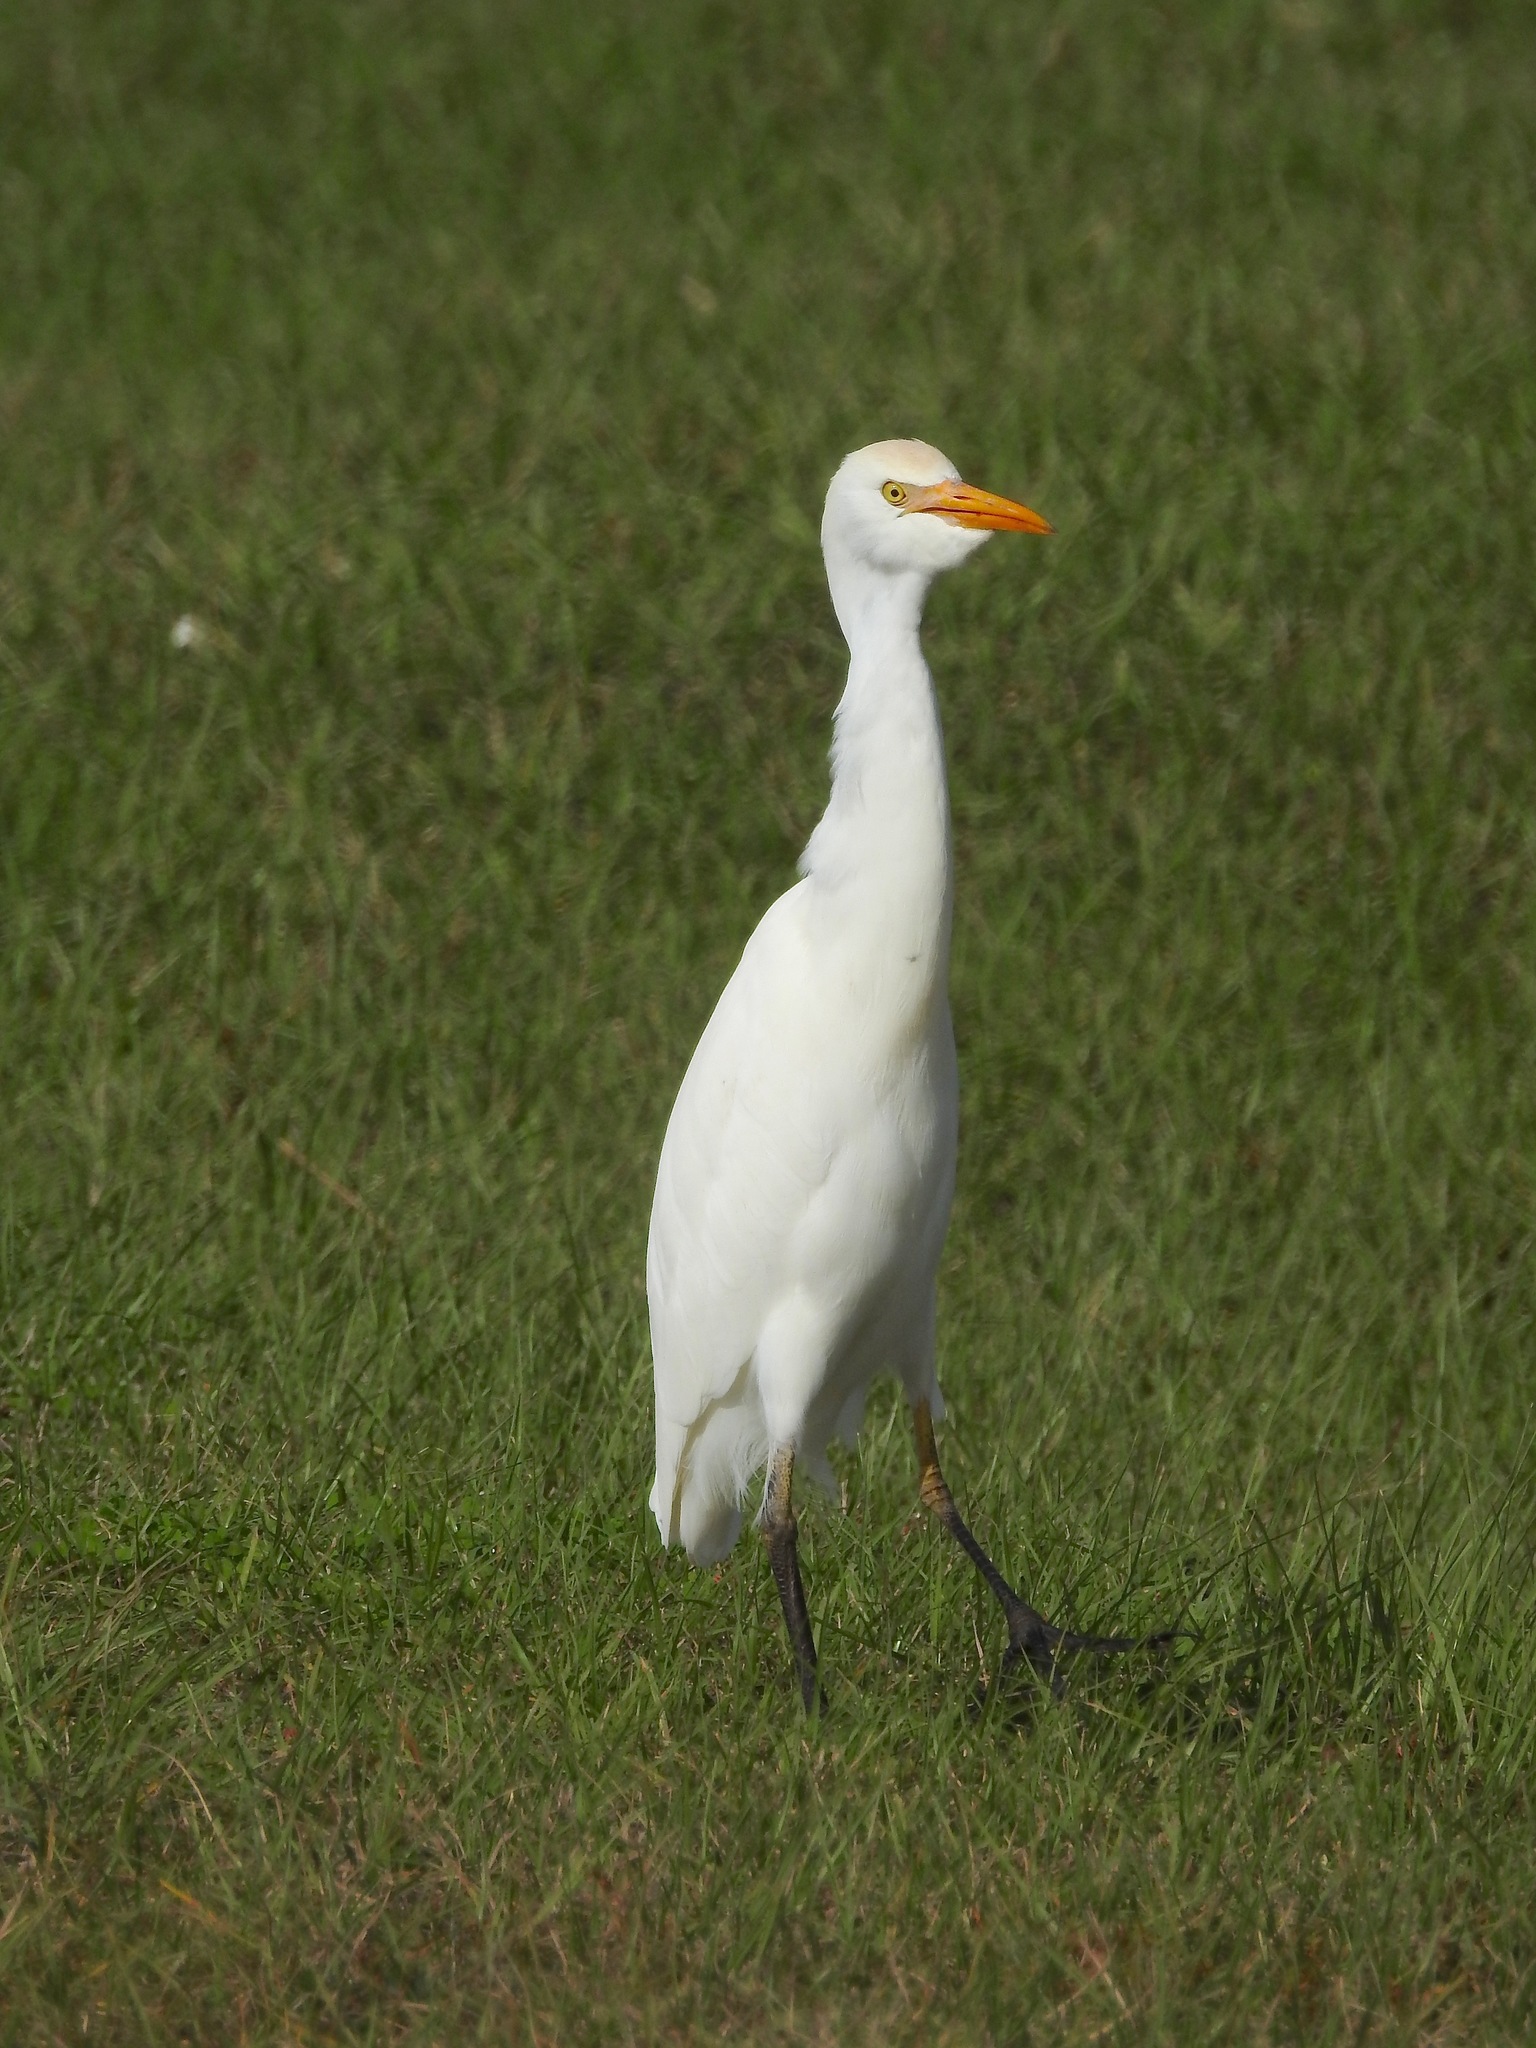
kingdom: Animalia
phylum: Chordata
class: Aves
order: Pelecaniformes
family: Ardeidae
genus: Bubulcus
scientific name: Bubulcus ibis
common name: Cattle egret
